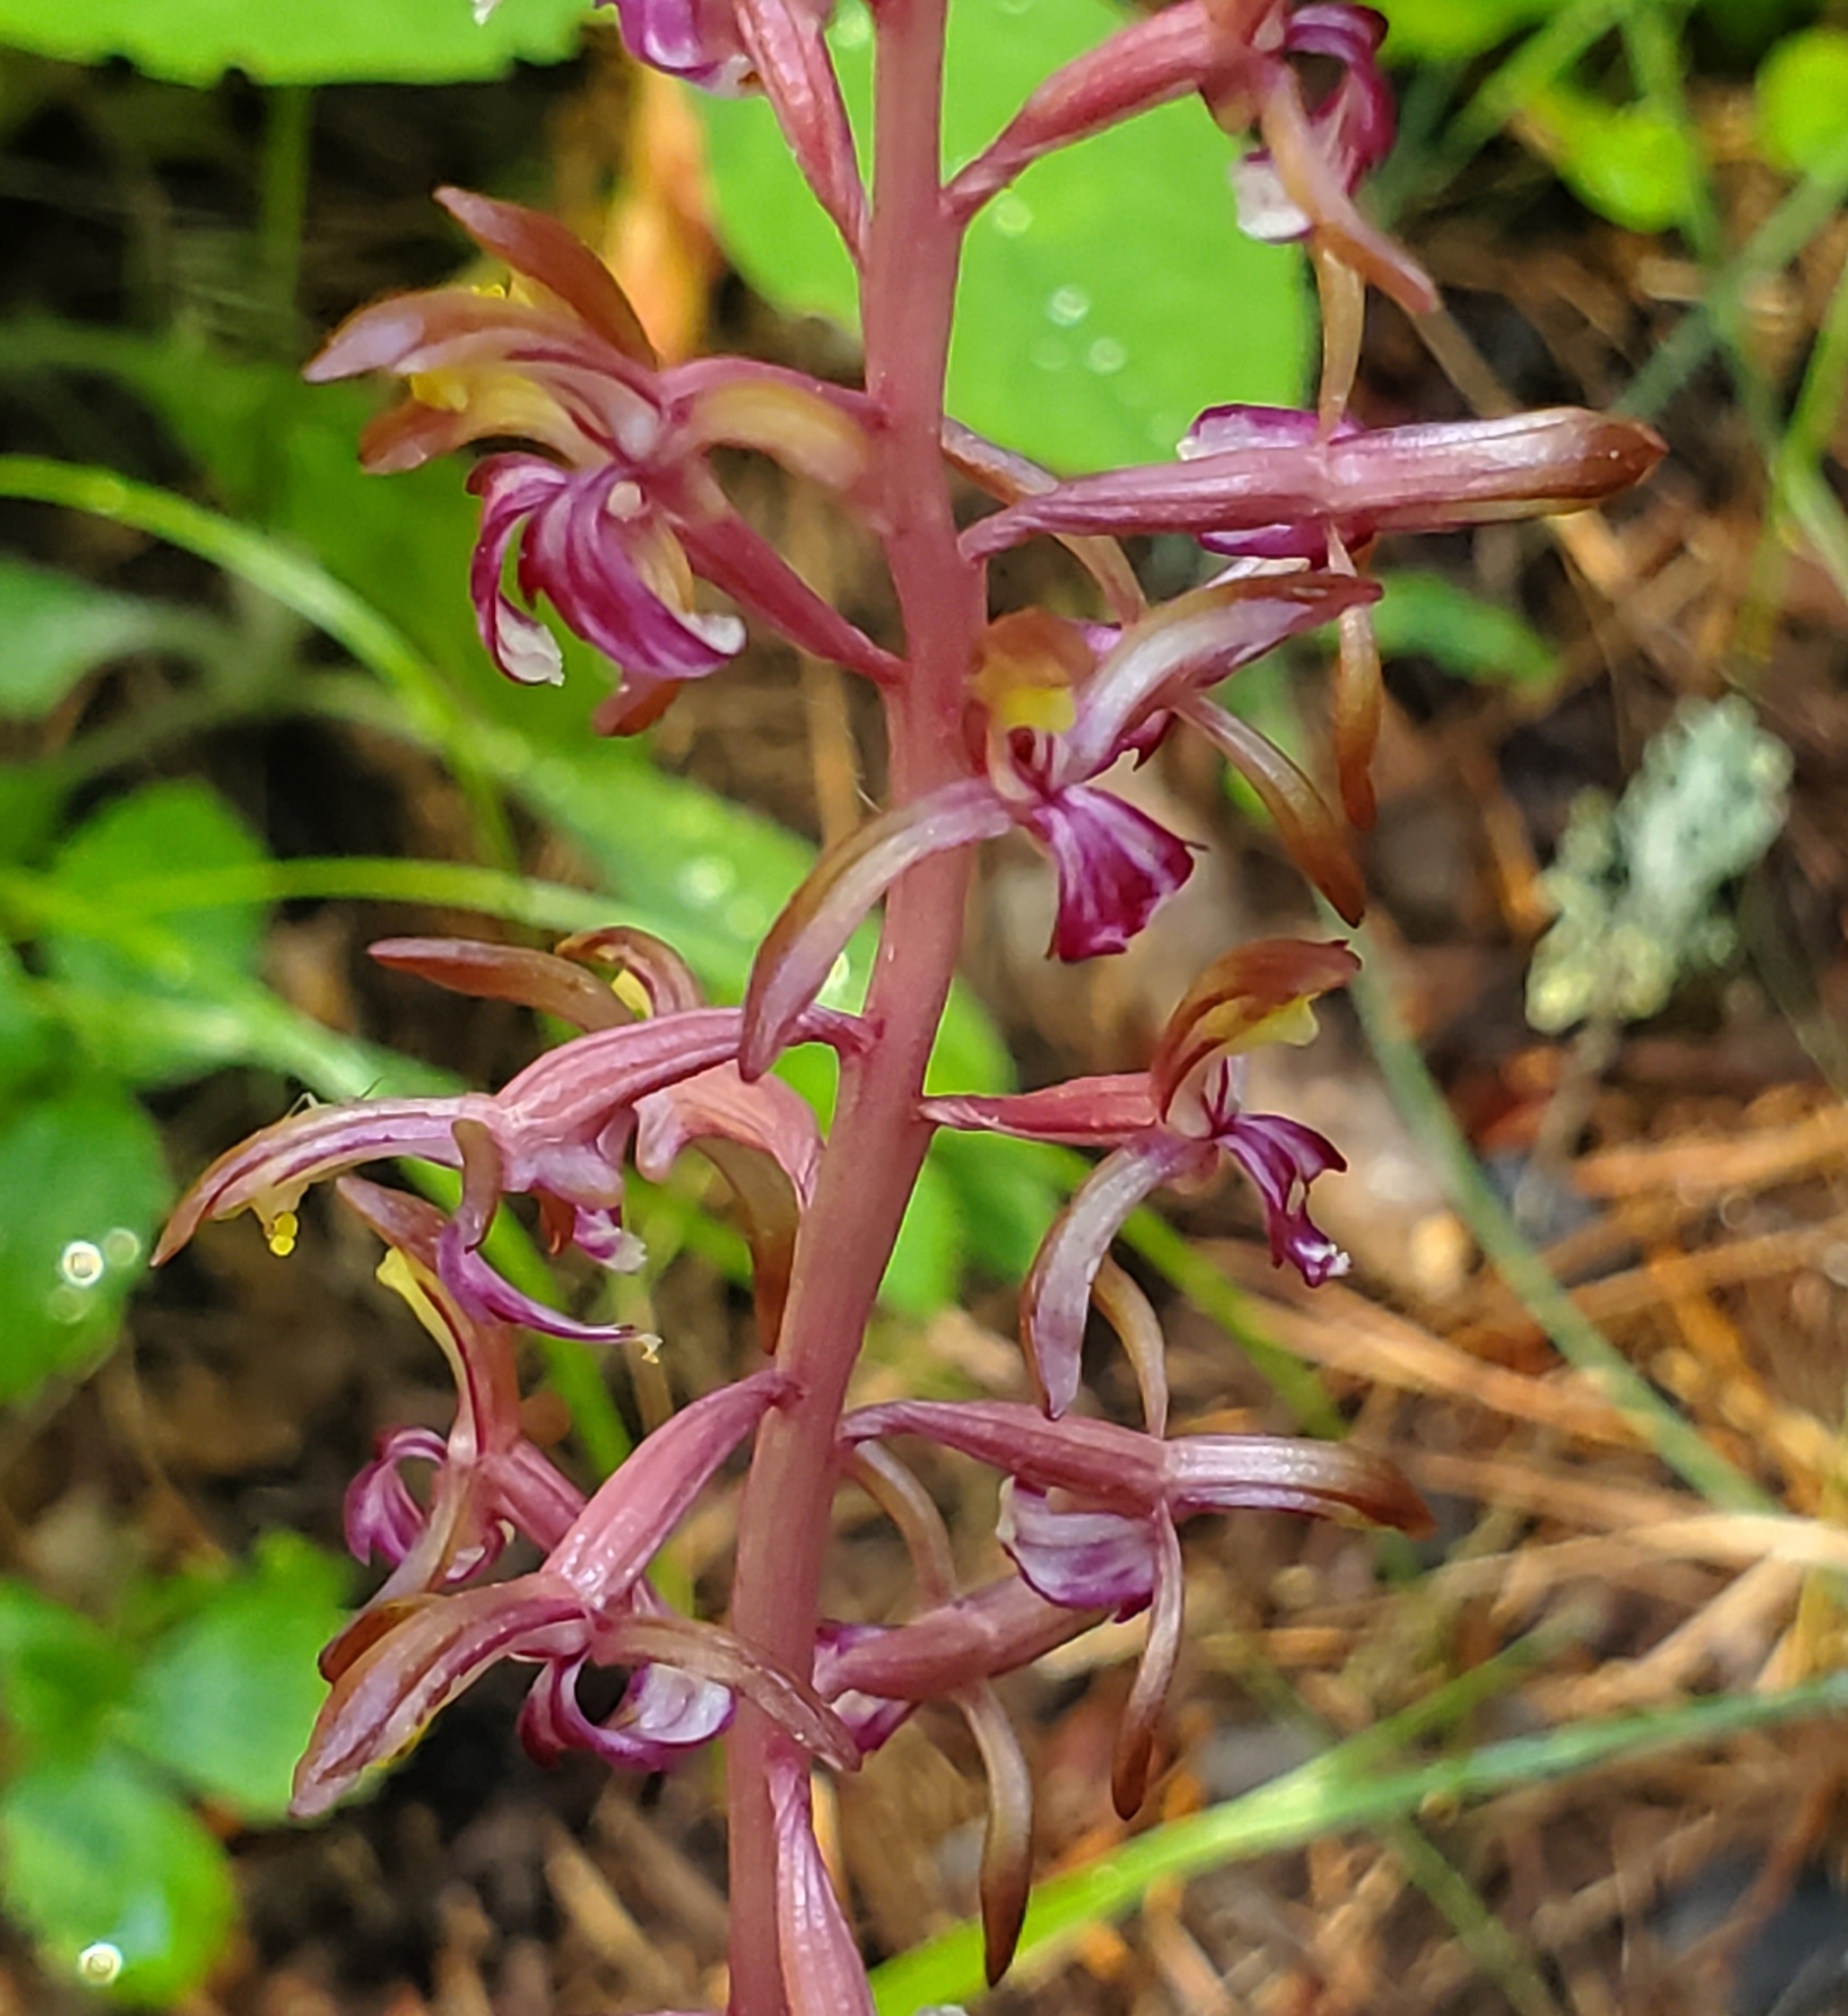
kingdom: Plantae
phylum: Tracheophyta
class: Liliopsida
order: Asparagales
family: Orchidaceae
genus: Corallorhiza
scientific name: Corallorhiza mertensiana
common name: Pacific coralroot
